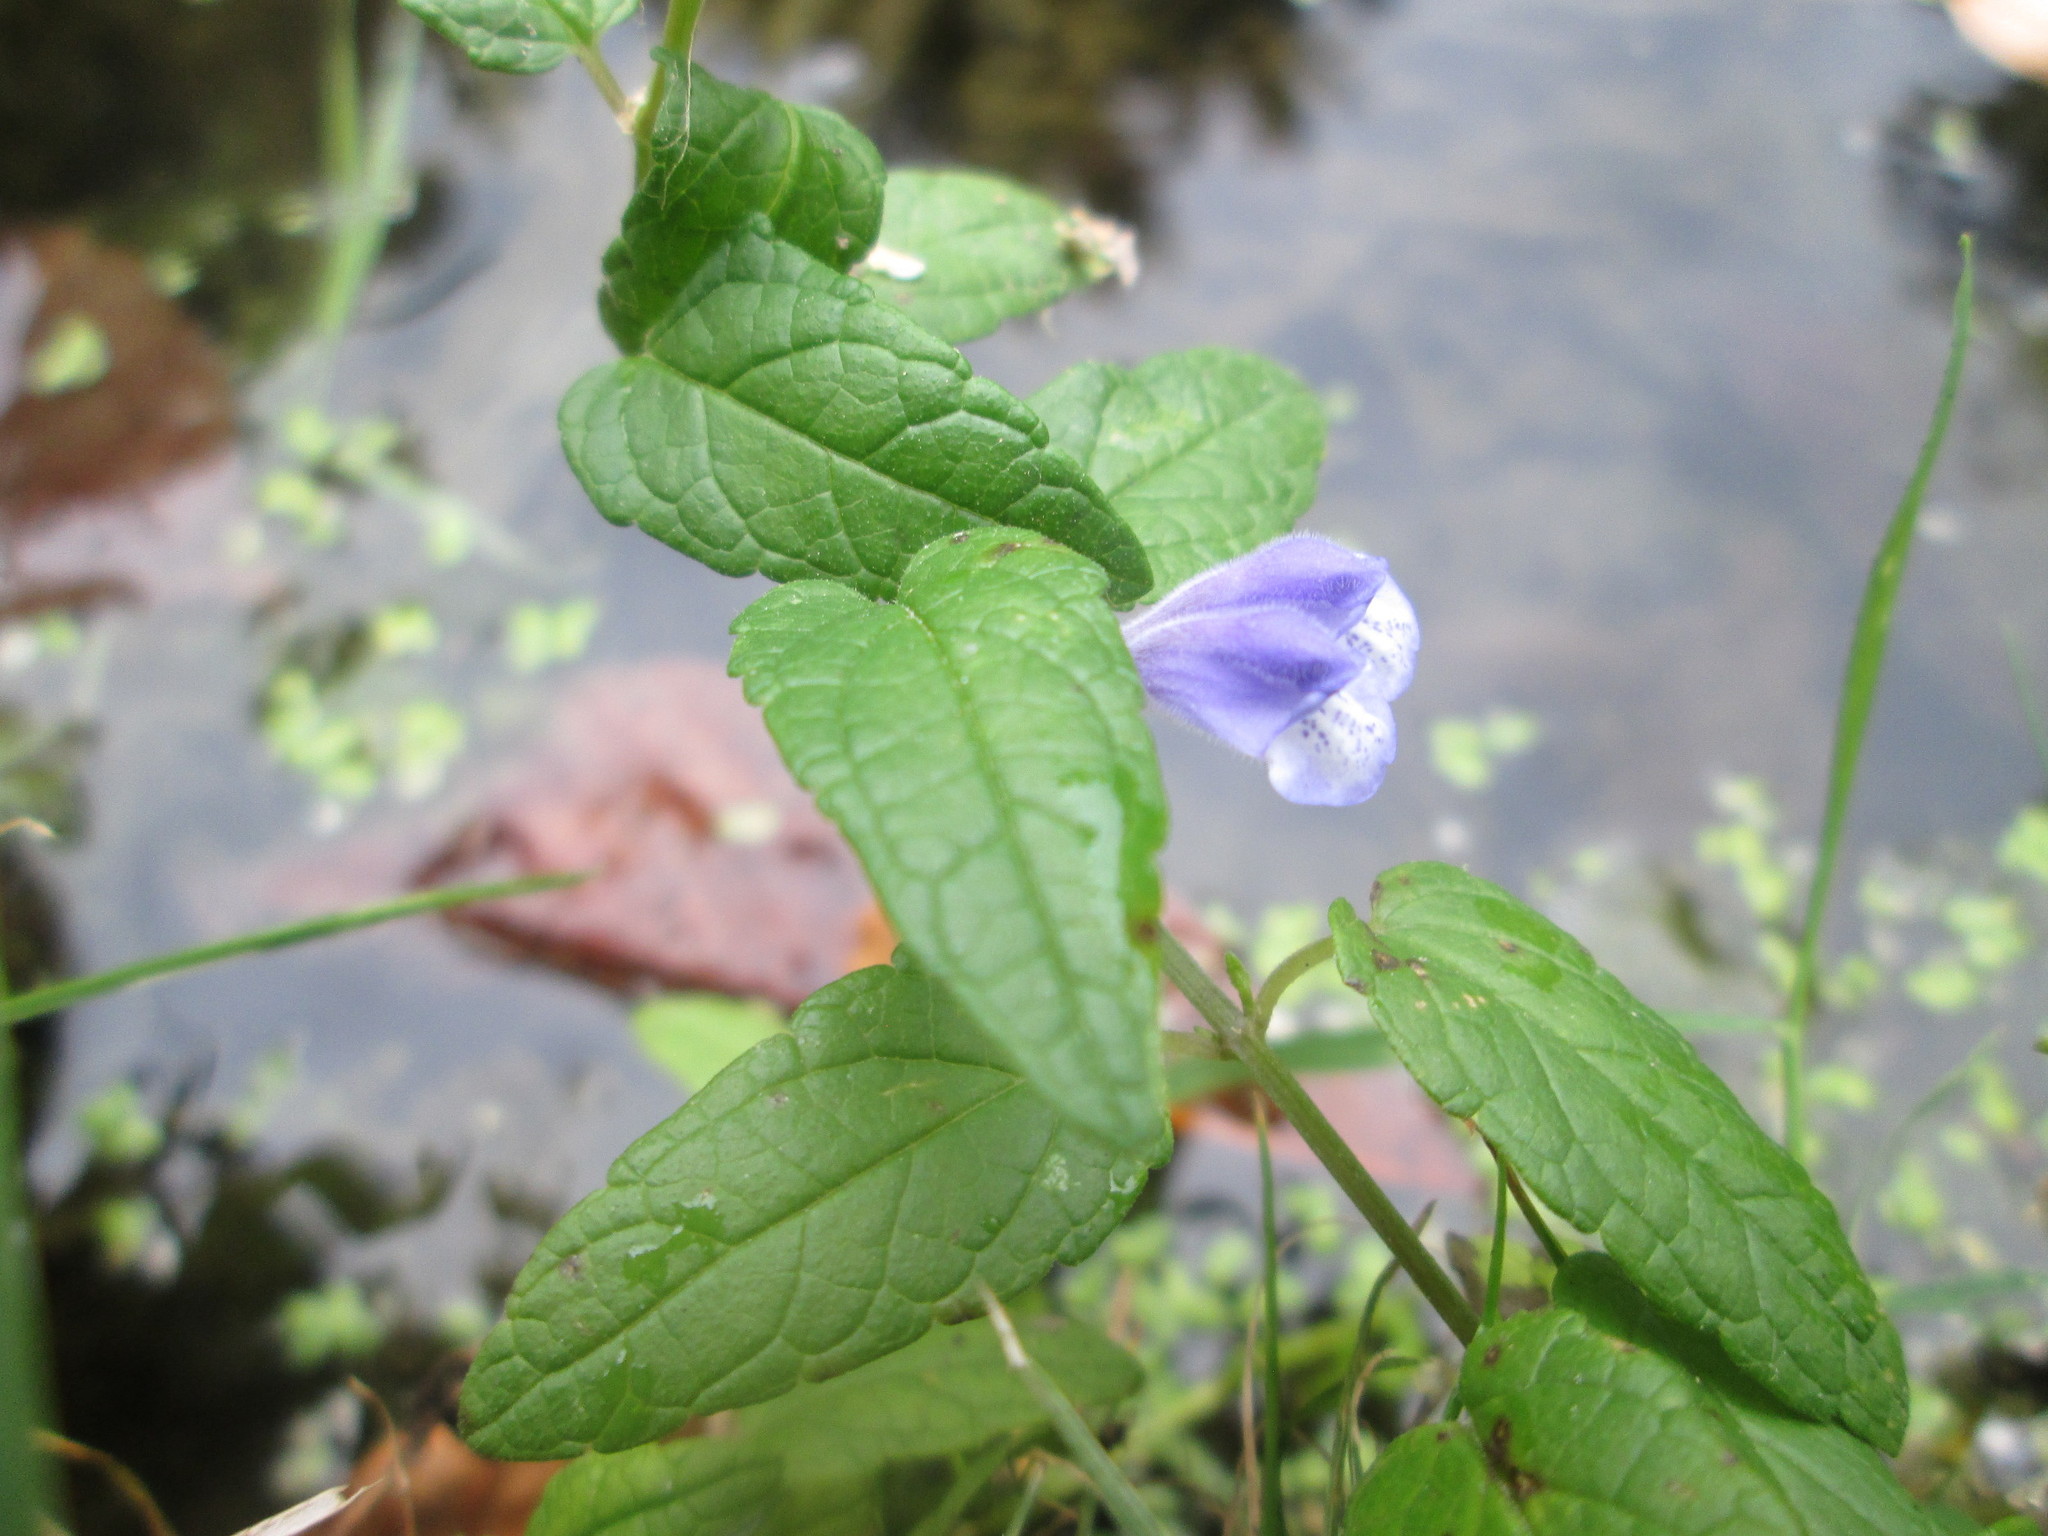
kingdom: Plantae
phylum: Tracheophyta
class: Magnoliopsida
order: Lamiales
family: Lamiaceae
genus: Scutellaria
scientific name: Scutellaria galericulata
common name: Skullcap
